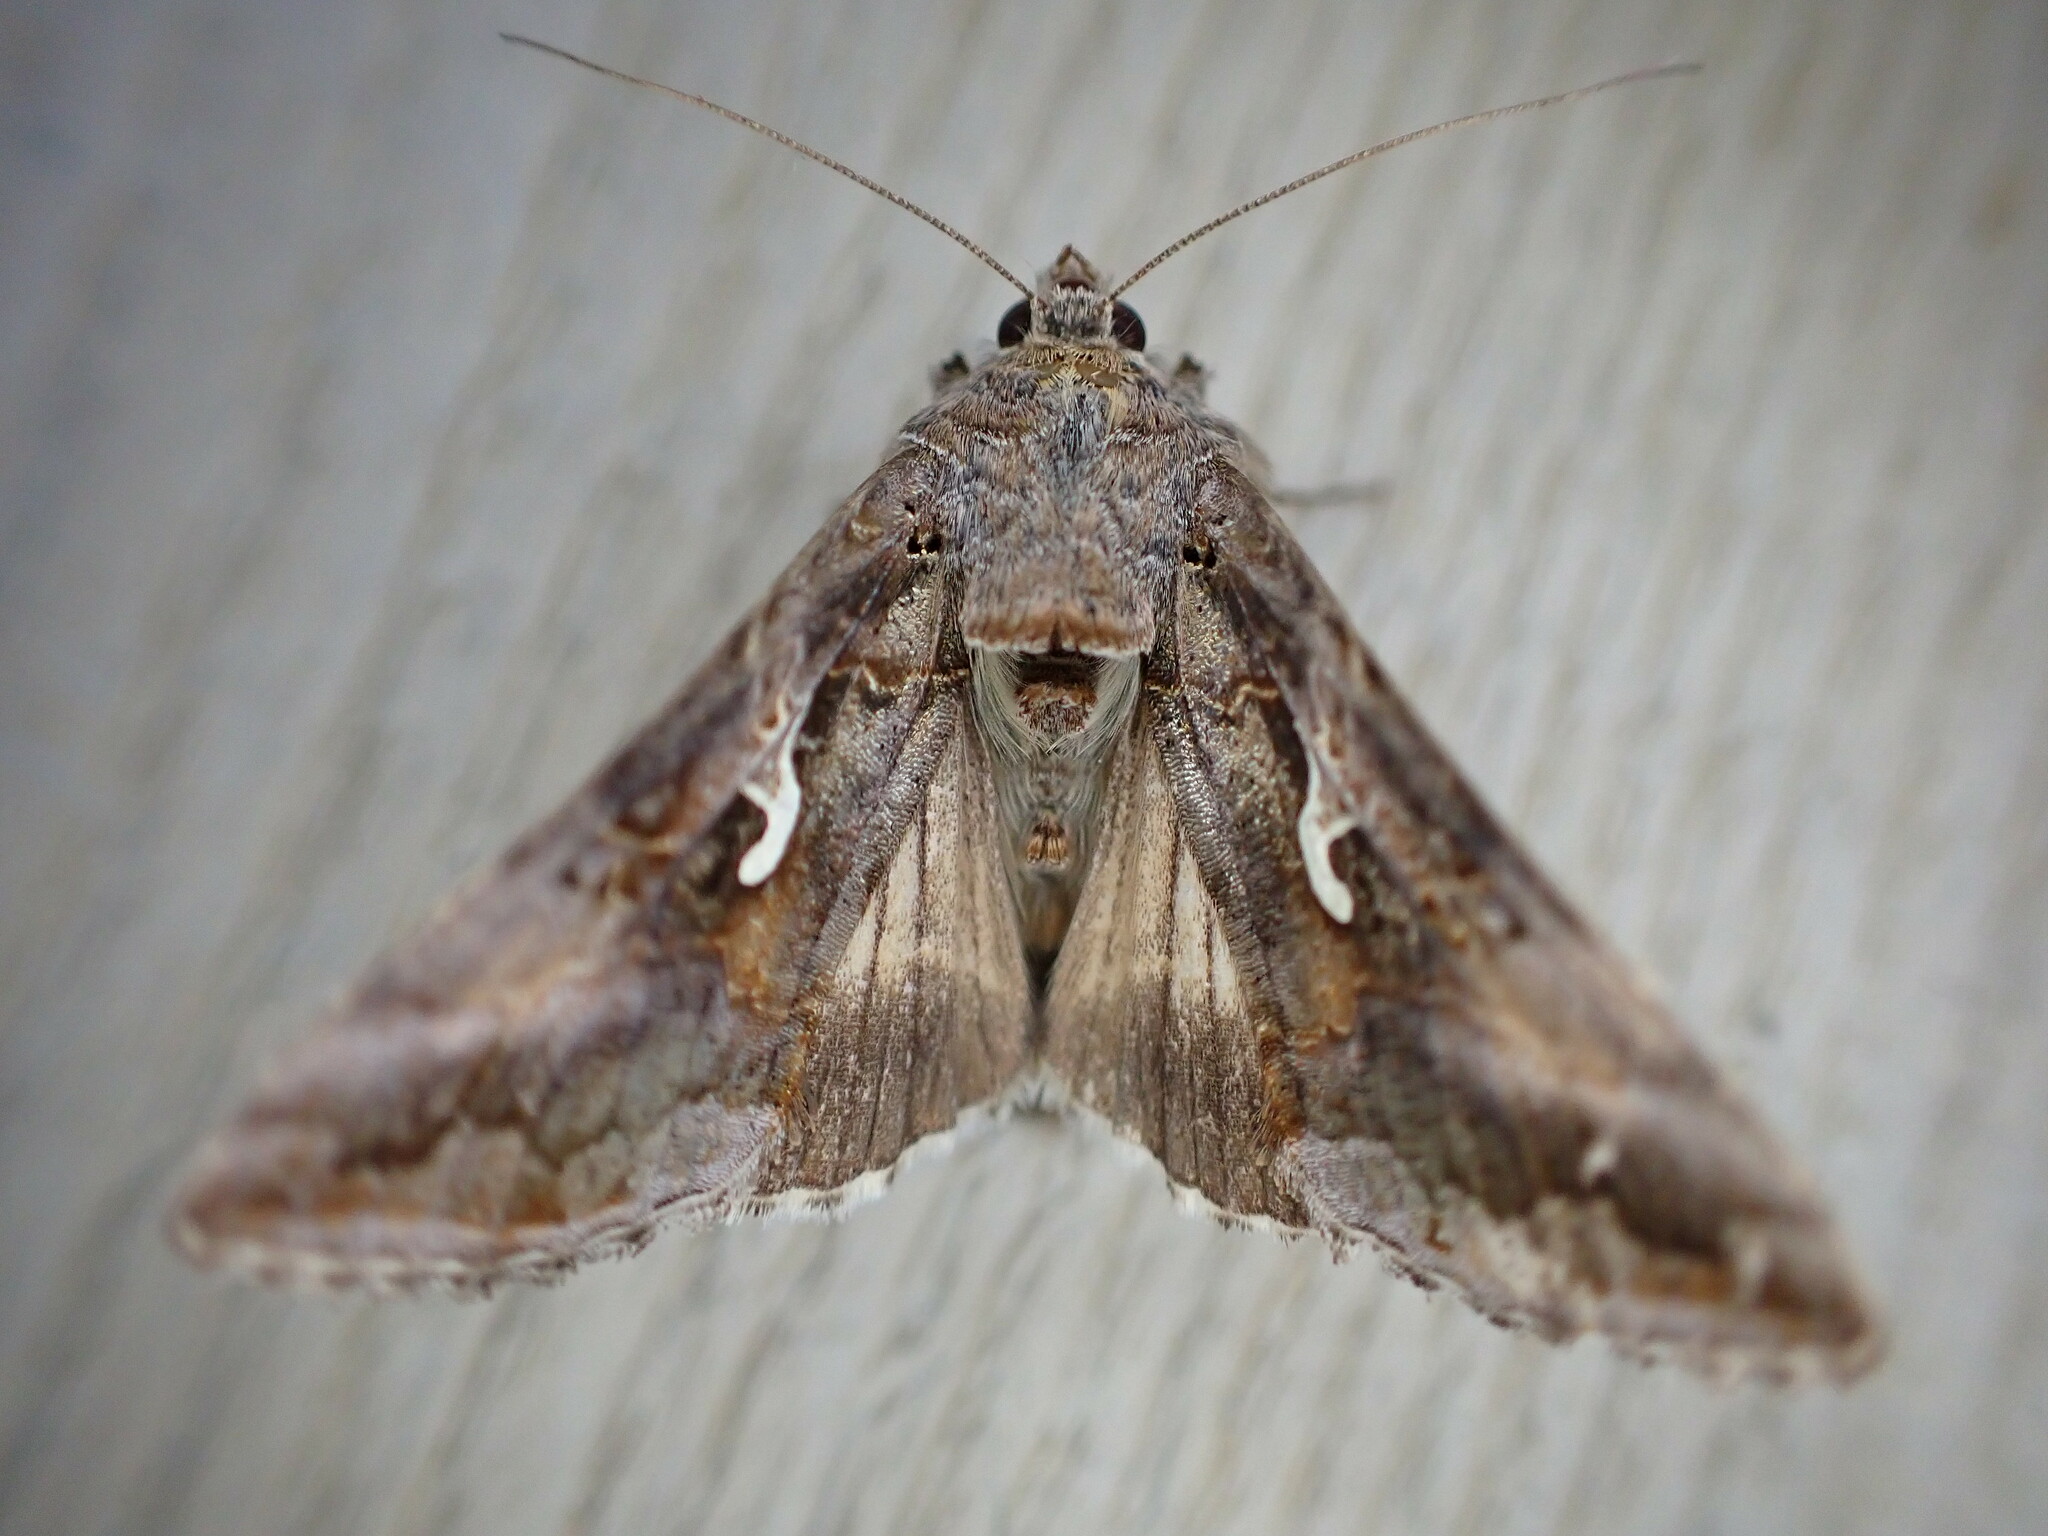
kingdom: Animalia
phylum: Arthropoda
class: Insecta
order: Lepidoptera
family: Noctuidae
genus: Autographa
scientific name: Autographa gamma
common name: Silver y
